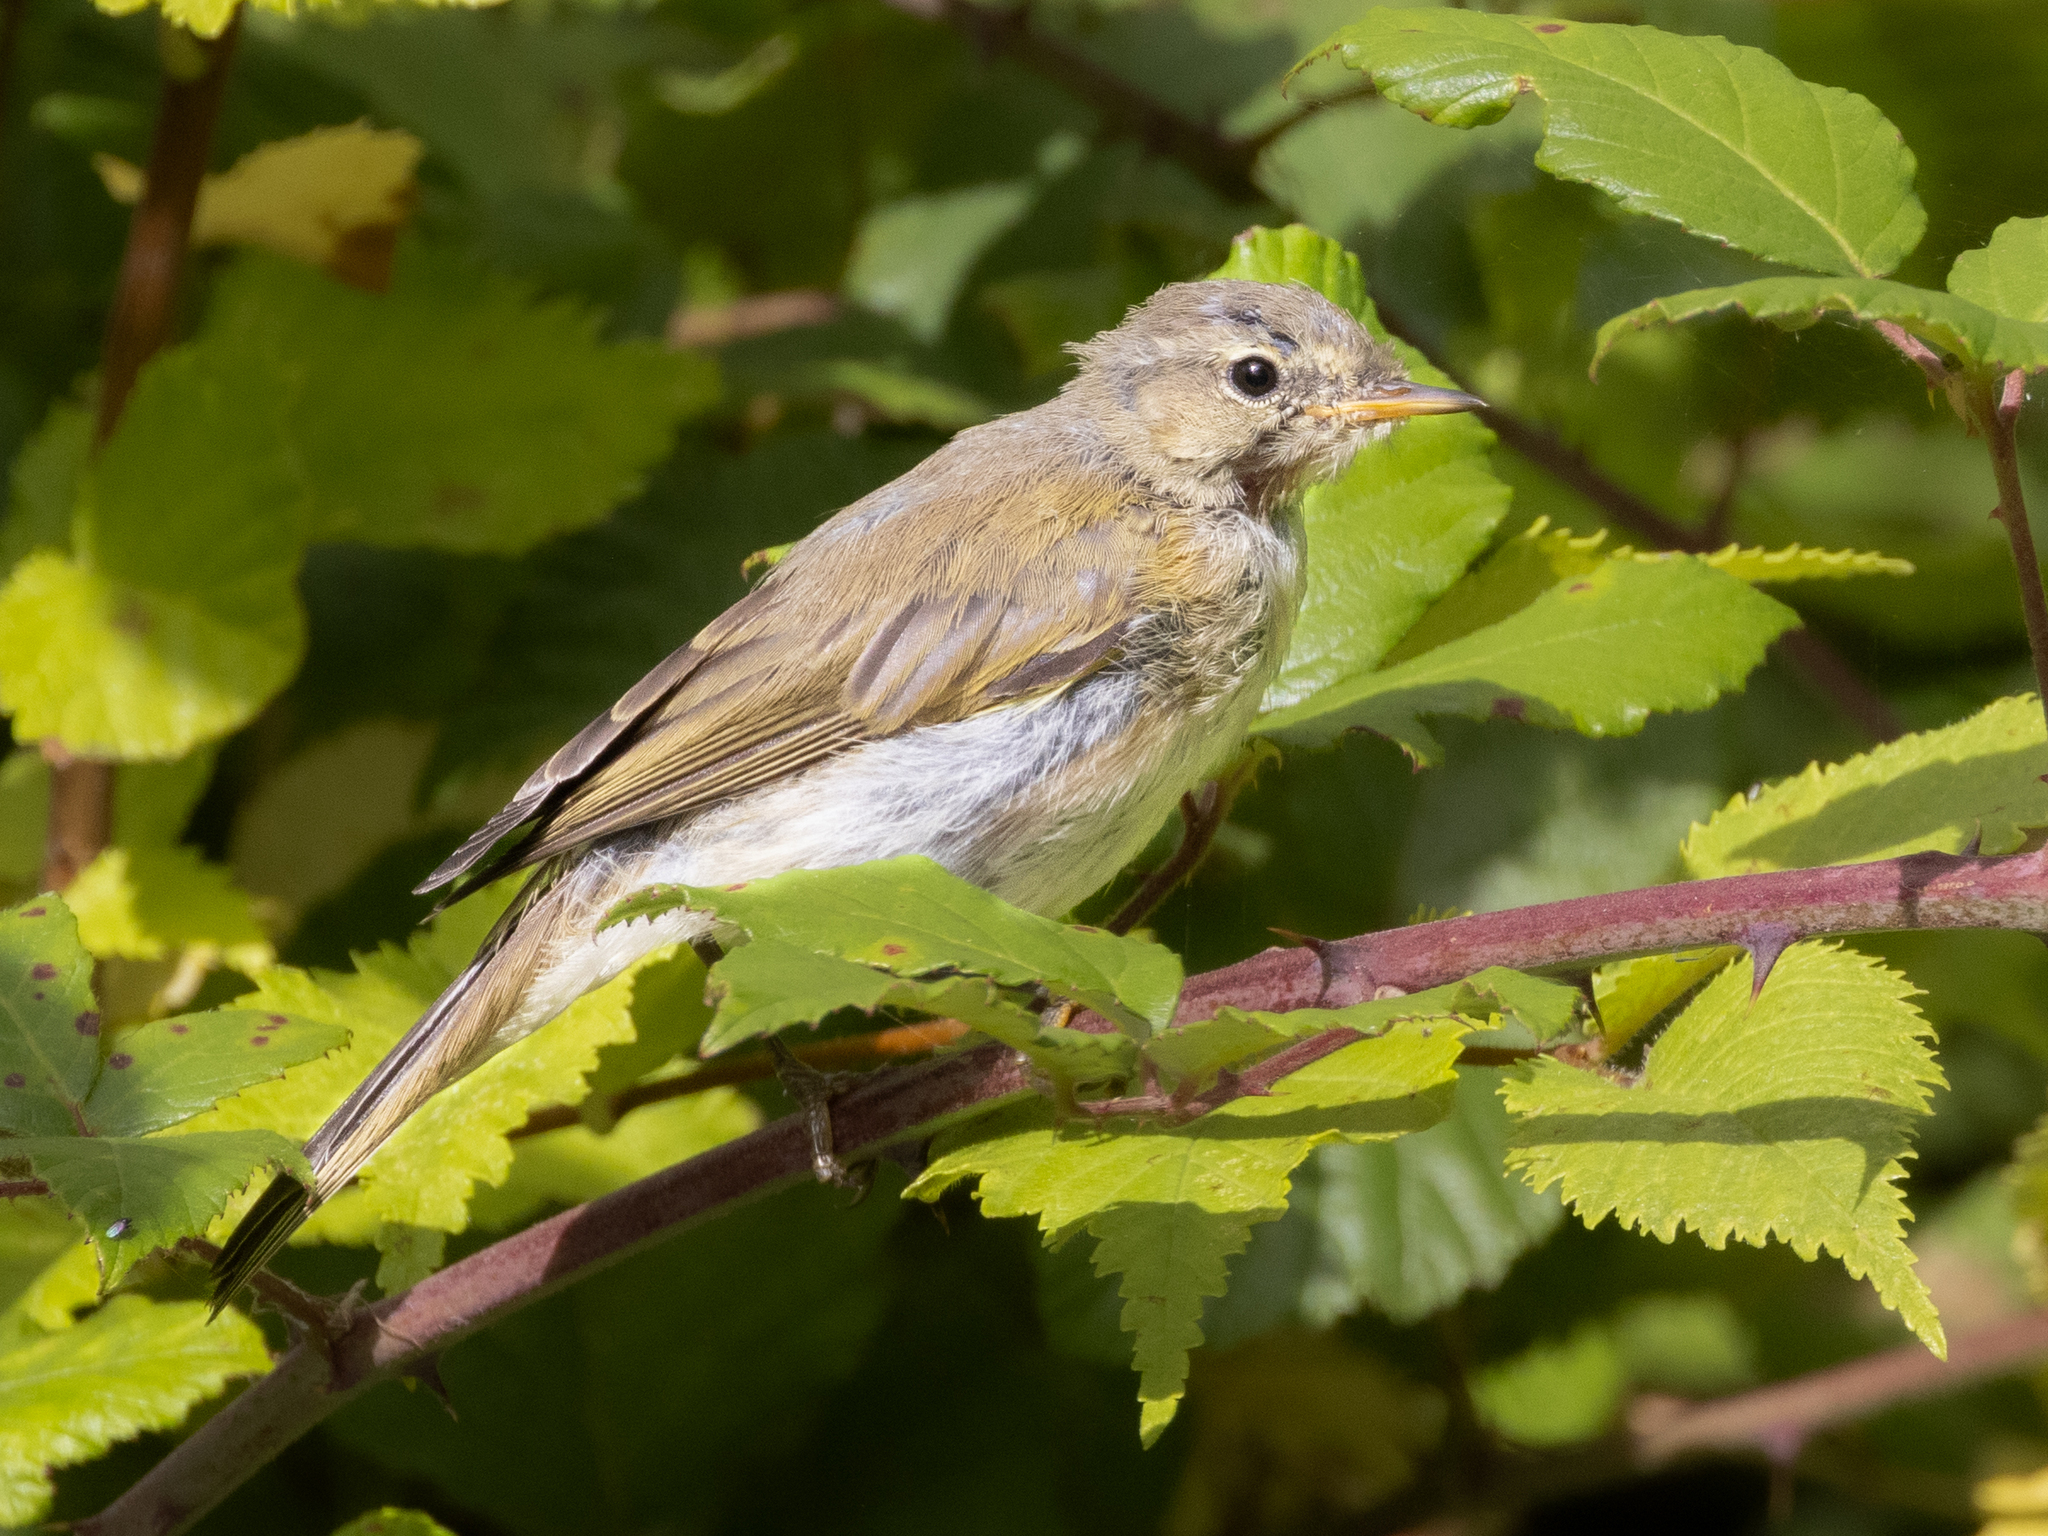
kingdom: Animalia
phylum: Chordata
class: Aves
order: Passeriformes
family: Phylloscopidae
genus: Phylloscopus
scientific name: Phylloscopus collybita
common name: Common chiffchaff
